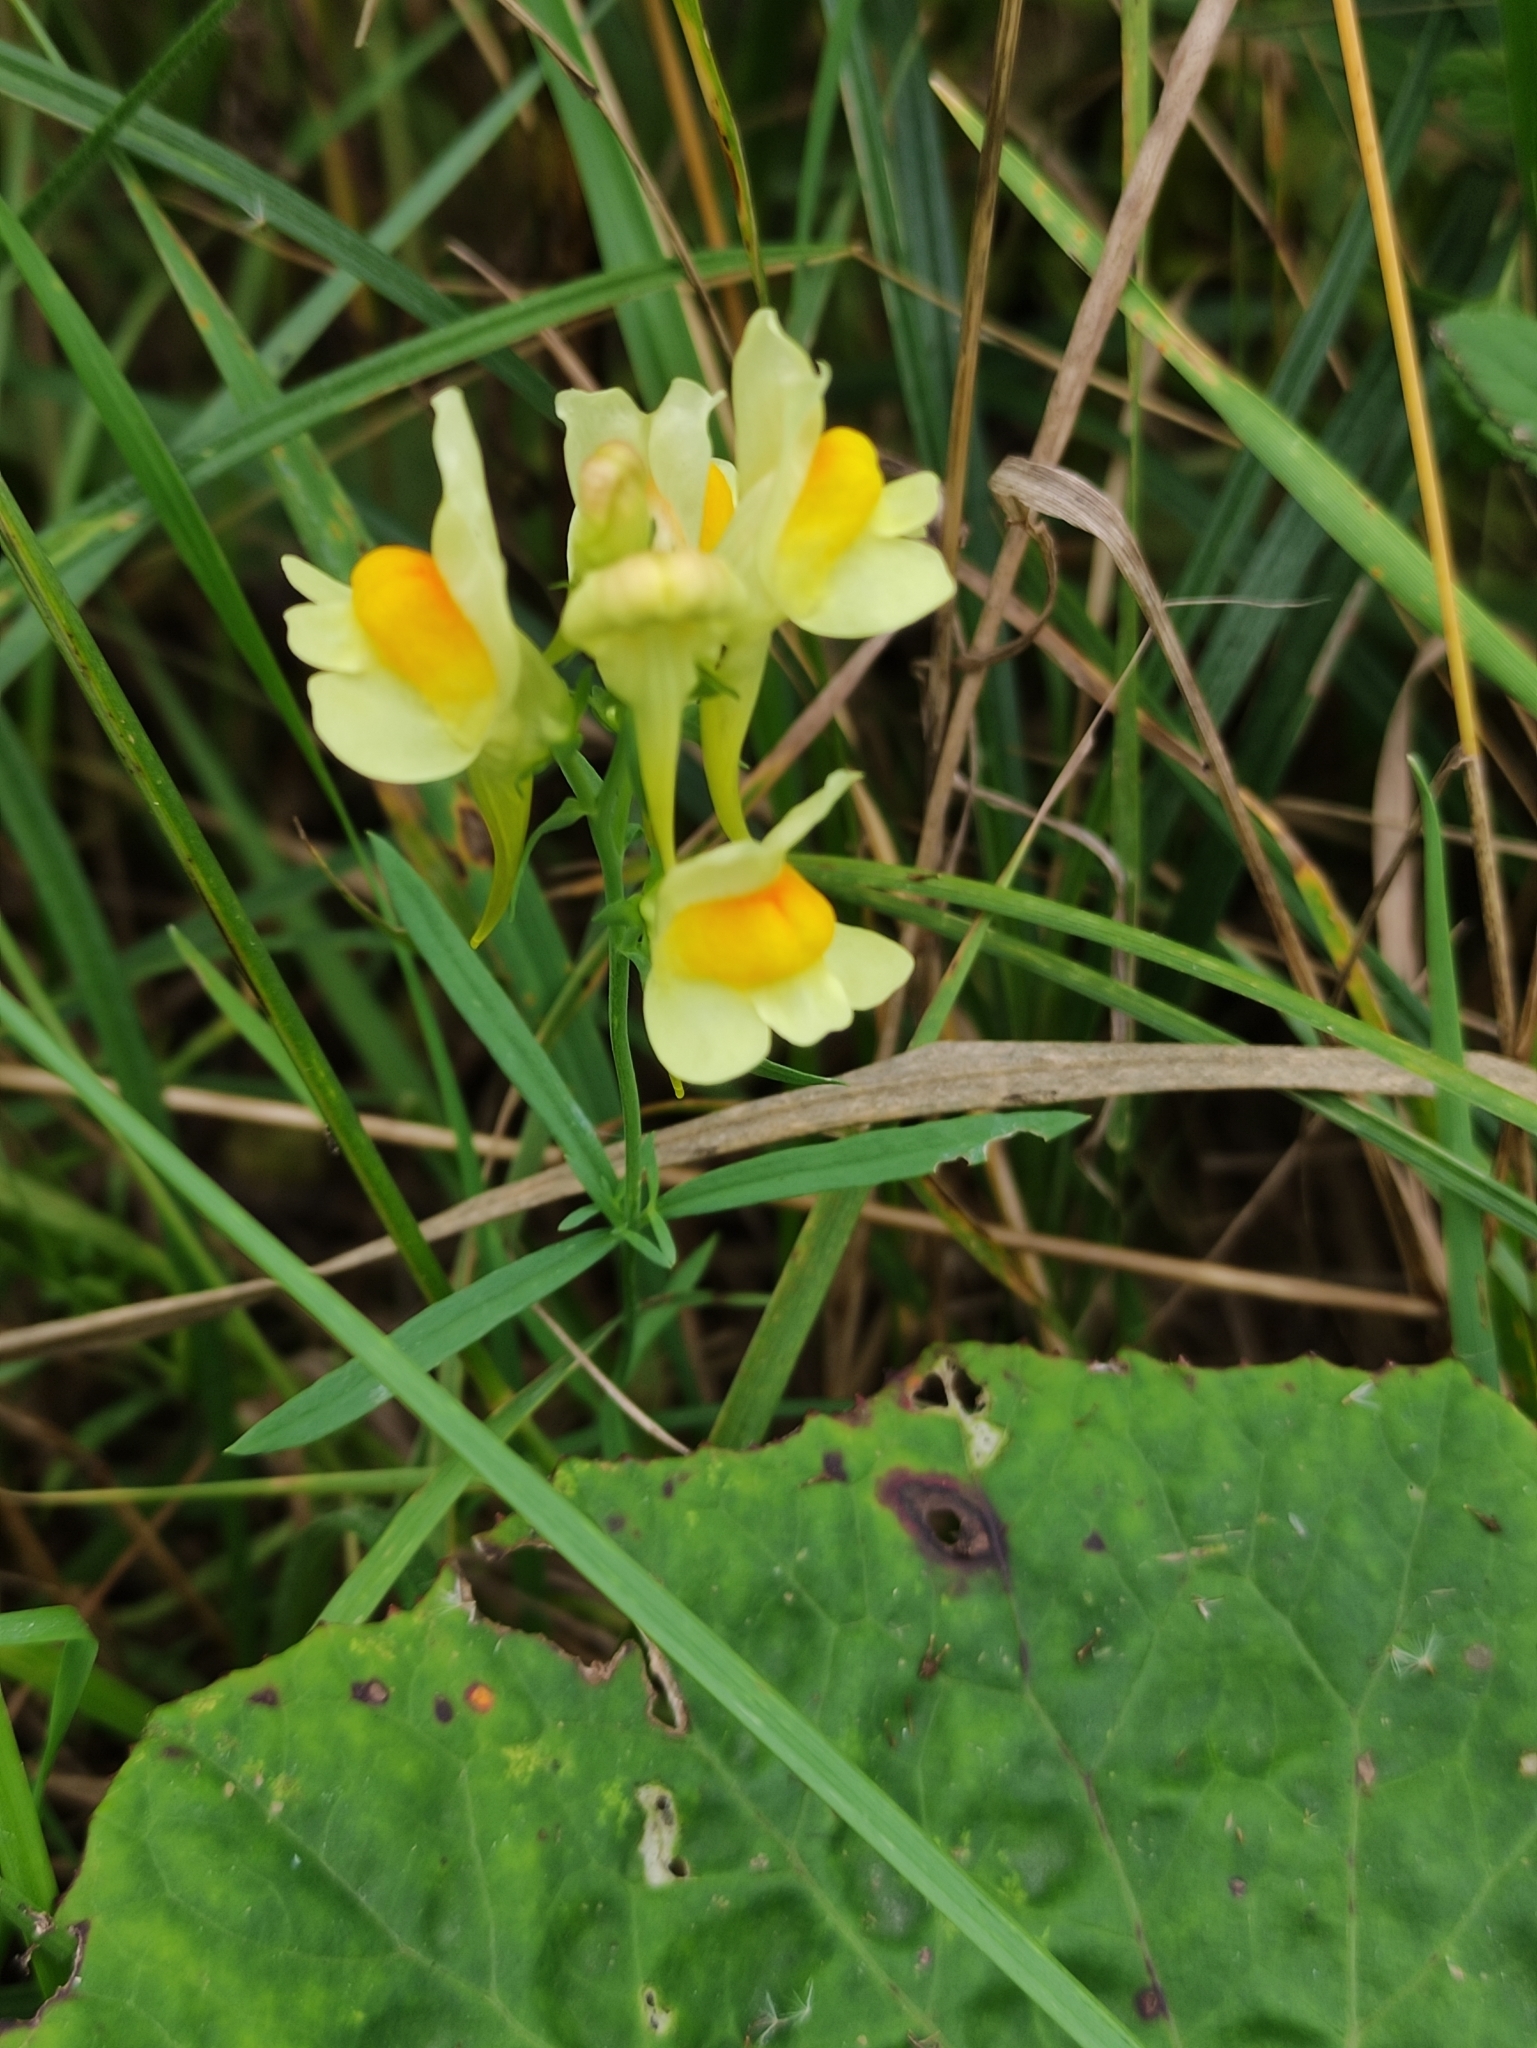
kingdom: Plantae
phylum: Tracheophyta
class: Magnoliopsida
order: Lamiales
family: Plantaginaceae
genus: Linaria
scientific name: Linaria vulgaris
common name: Butter and eggs
